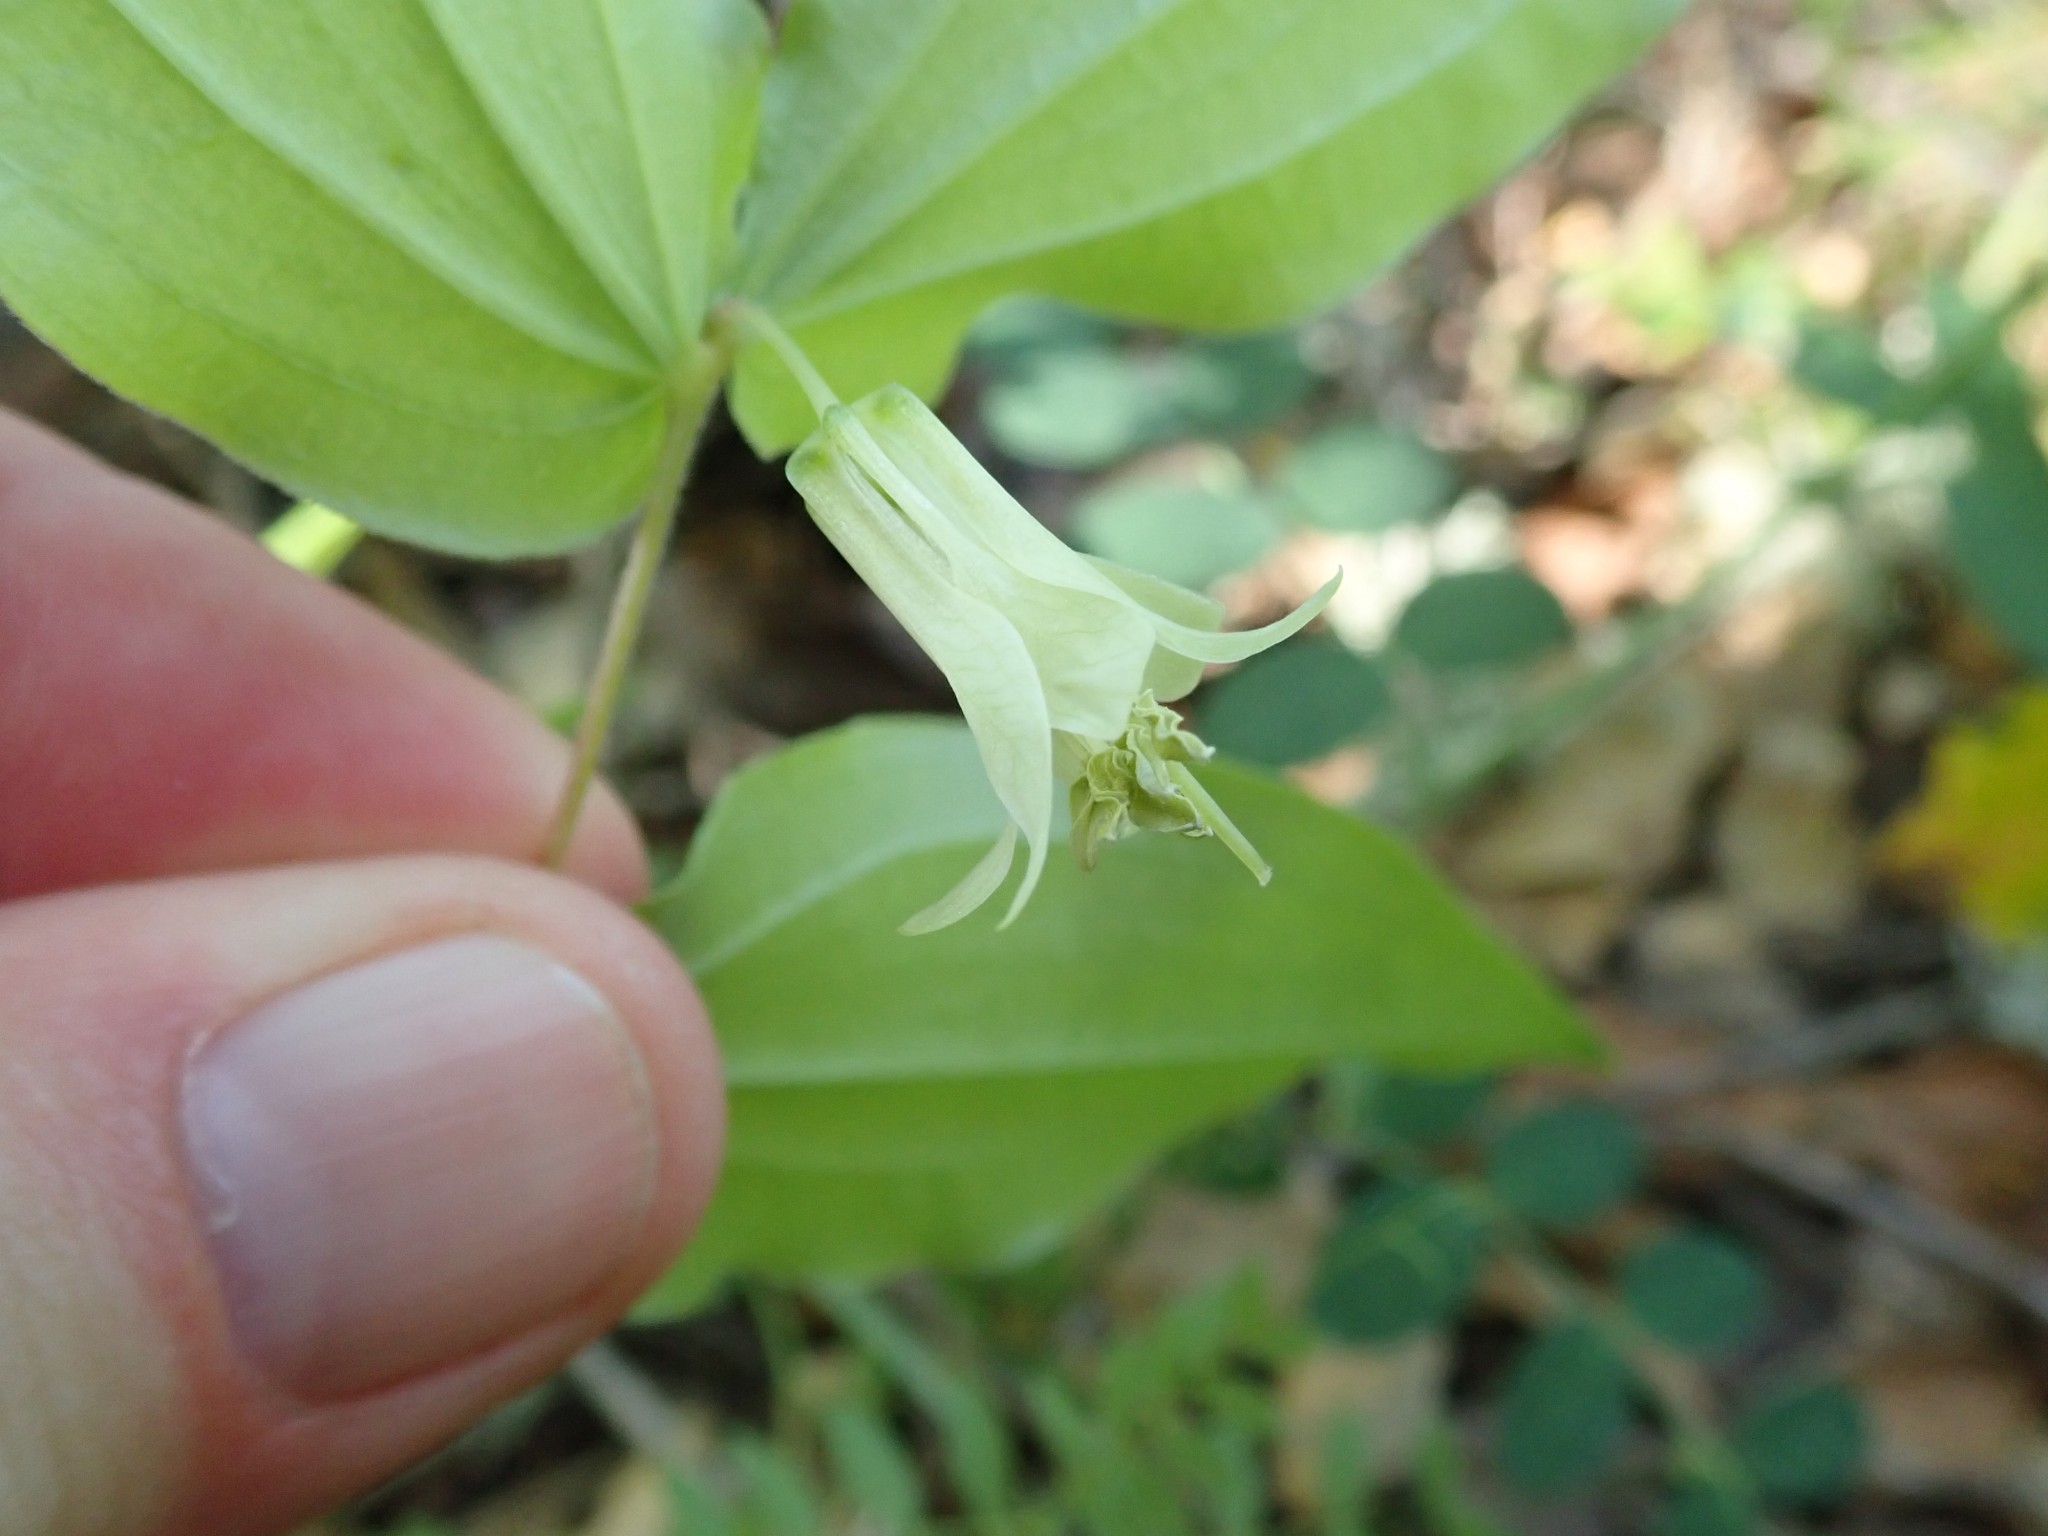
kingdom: Plantae
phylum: Tracheophyta
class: Liliopsida
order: Liliales
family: Liliaceae
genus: Prosartes
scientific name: Prosartes hookeri
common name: Fairy-bells
